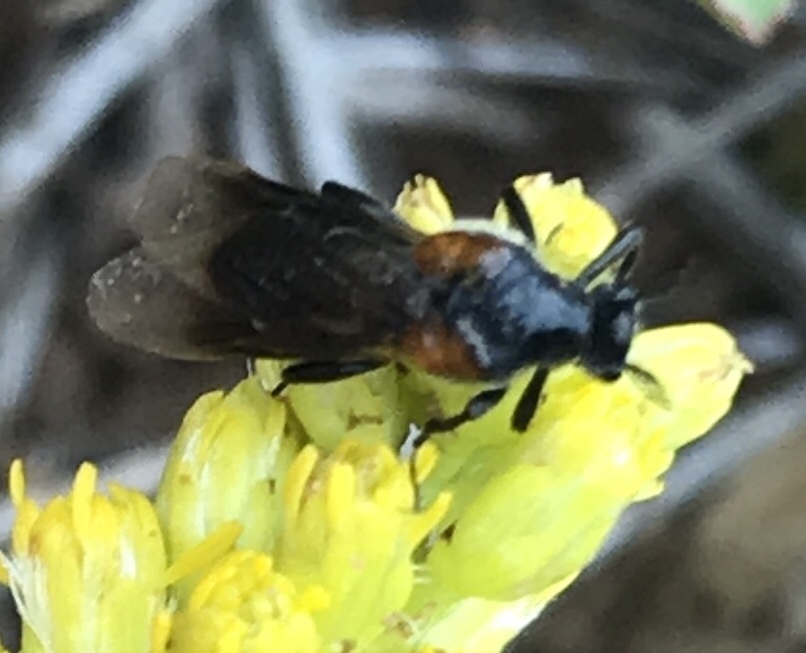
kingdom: Animalia
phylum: Arthropoda
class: Insecta
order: Coleoptera
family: Ripiphoridae
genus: Ripiphorus
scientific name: Ripiphorus
